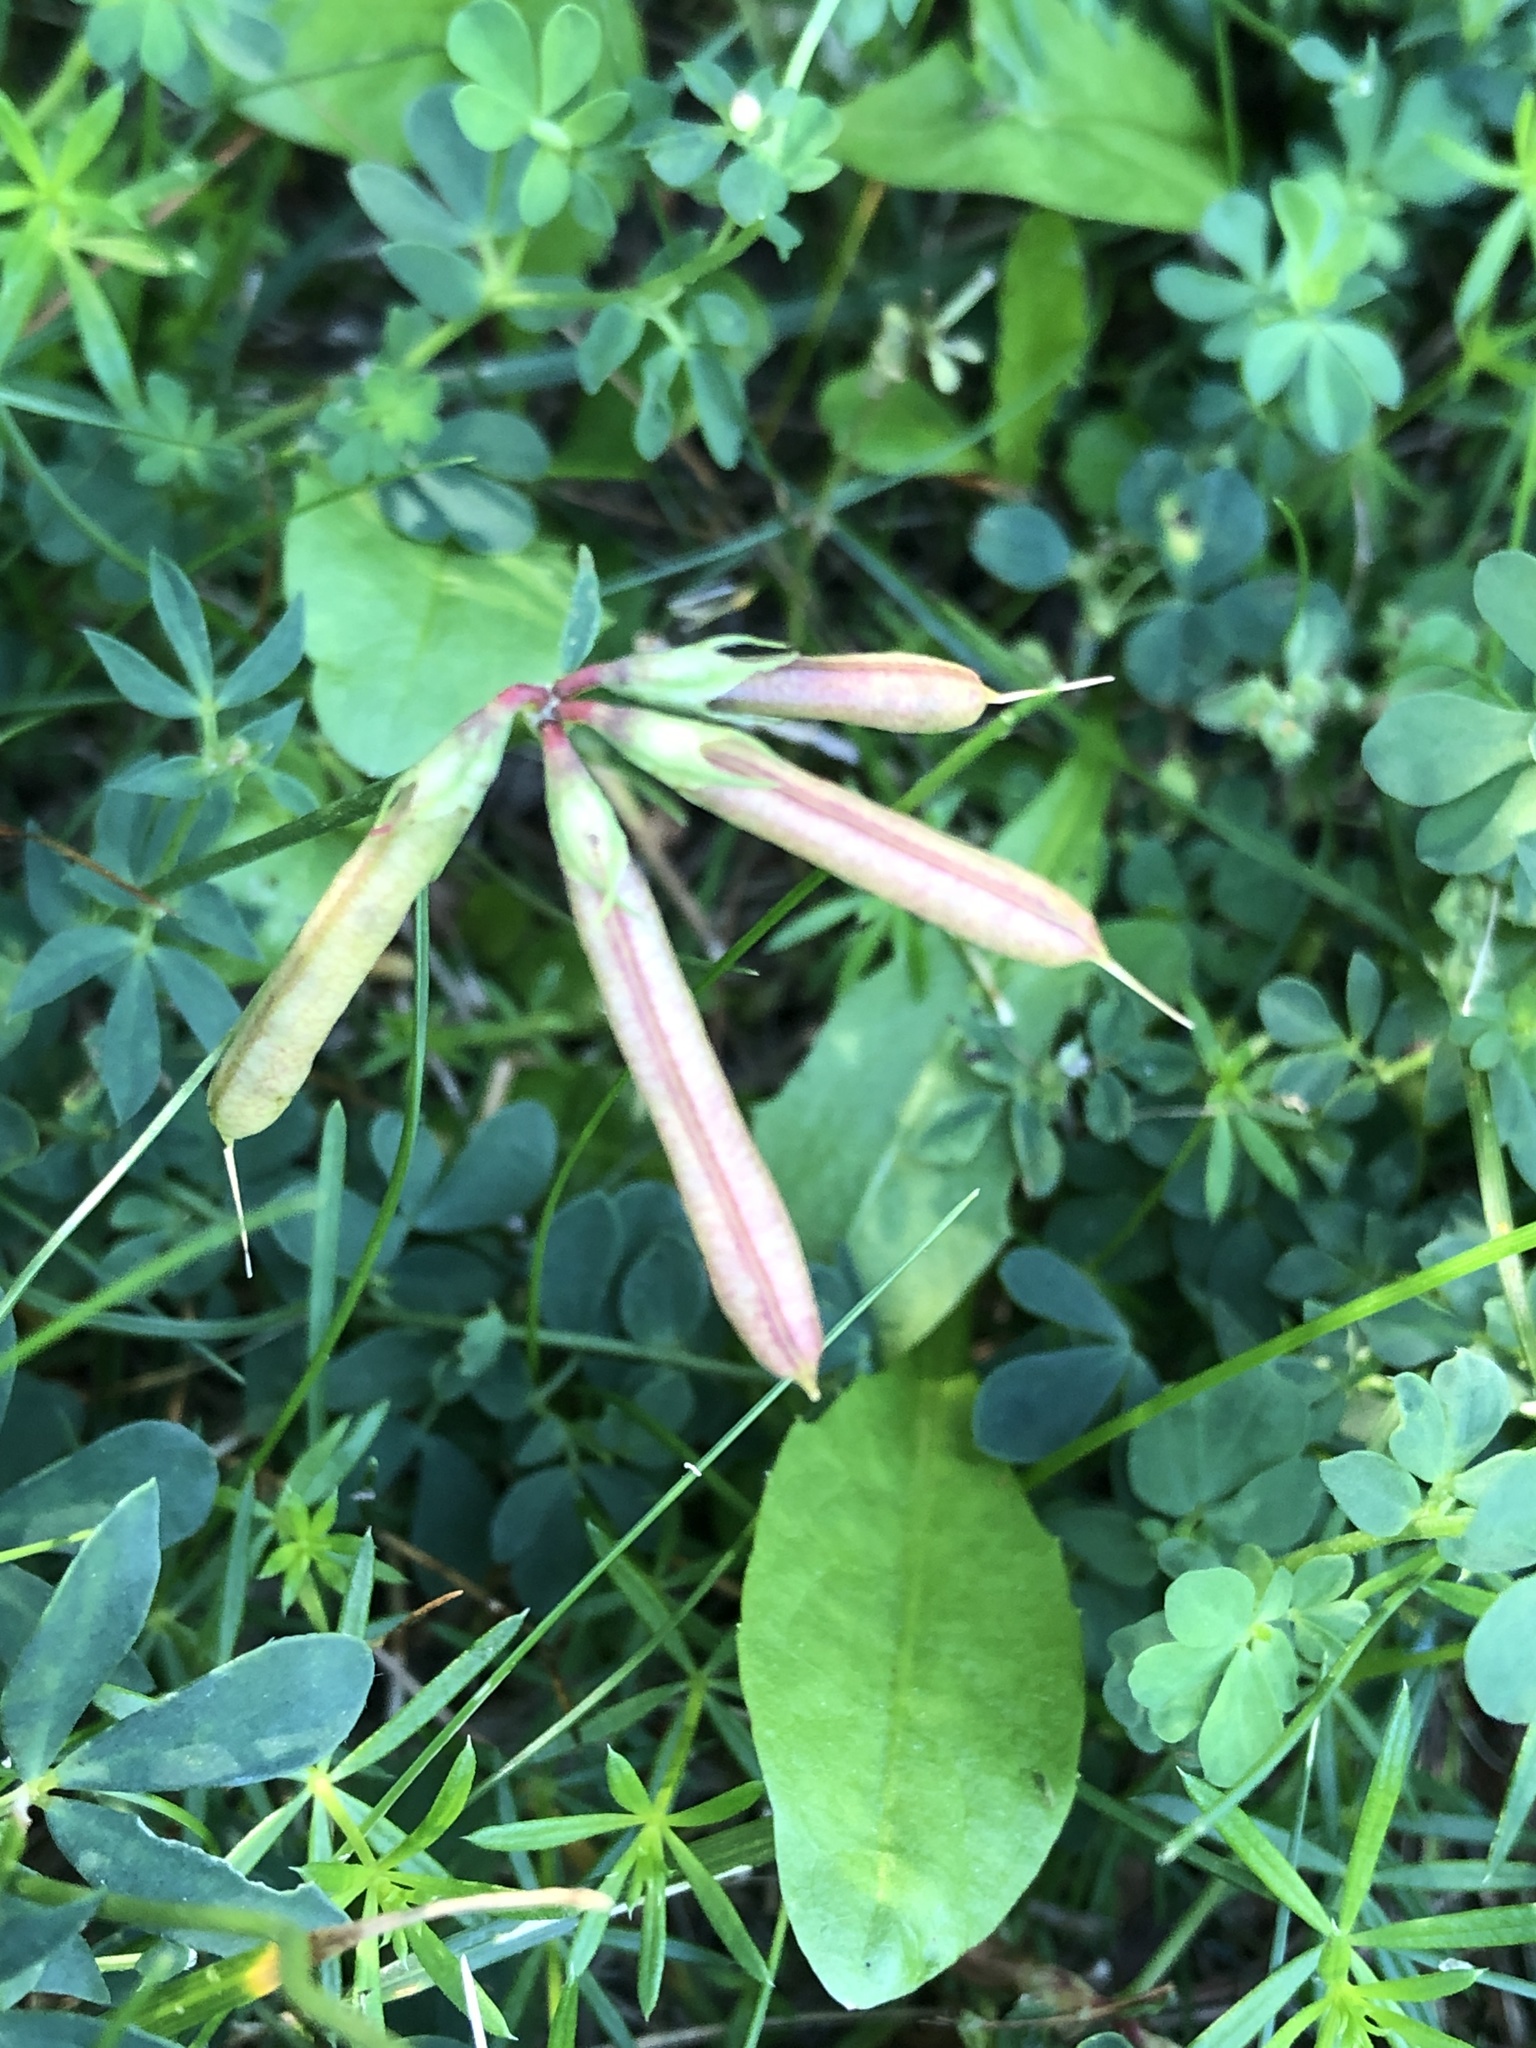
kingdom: Plantae
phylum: Tracheophyta
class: Magnoliopsida
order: Fabales
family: Fabaceae
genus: Lotus
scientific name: Lotus corniculatus
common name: Common bird's-foot-trefoil
